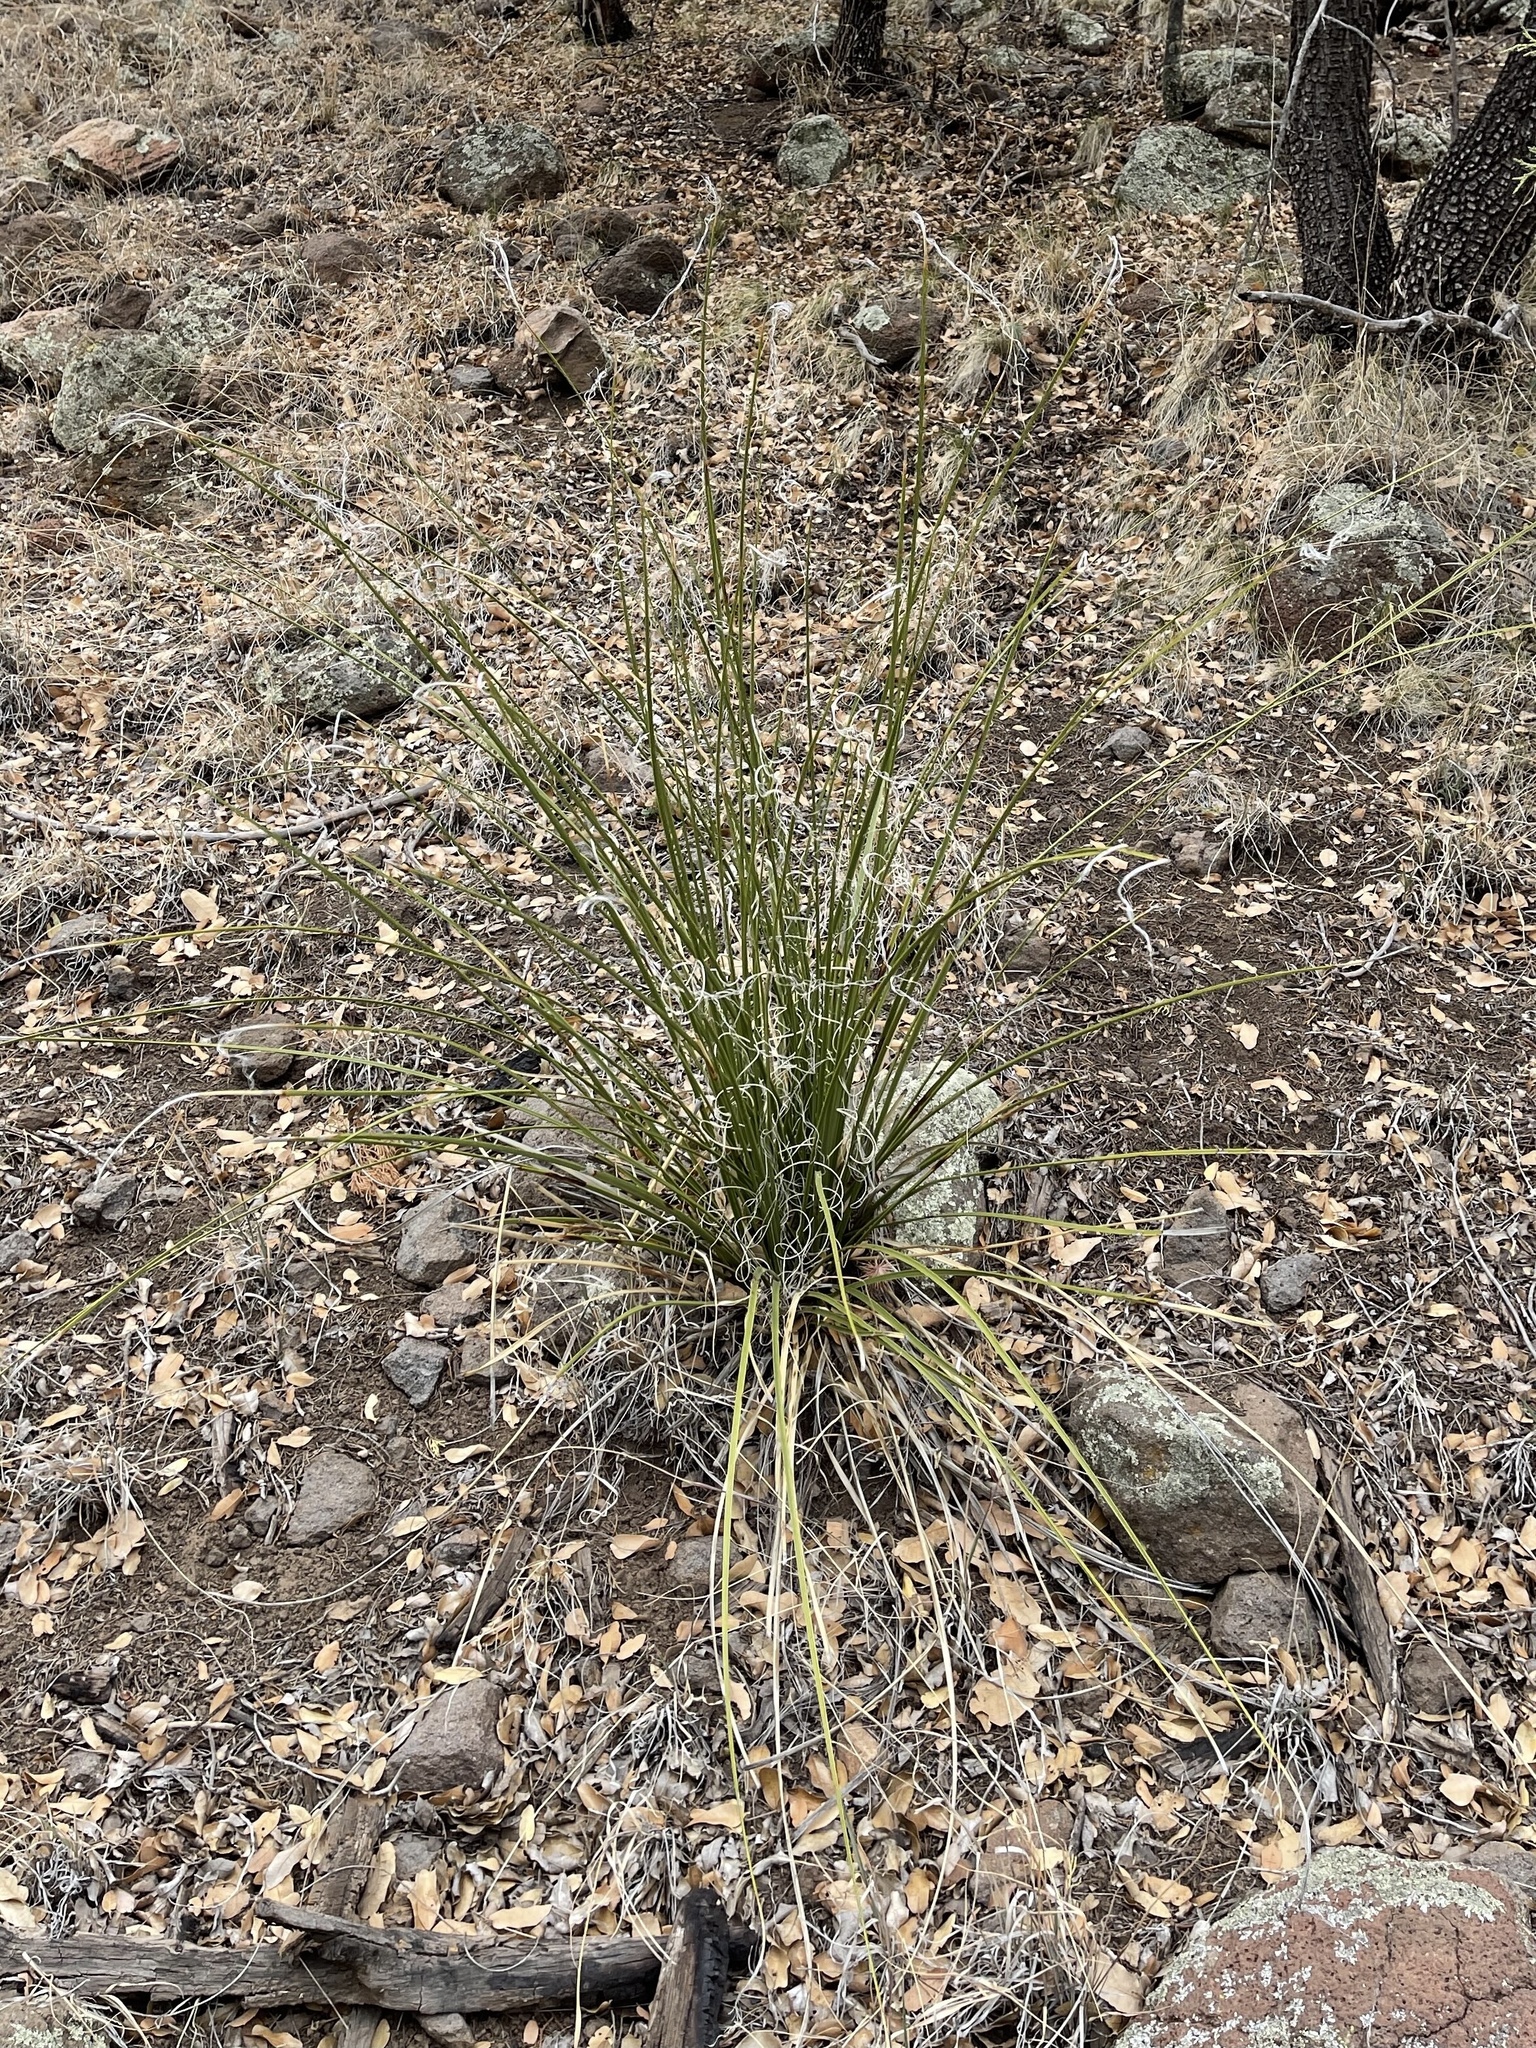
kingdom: Plantae
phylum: Tracheophyta
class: Liliopsida
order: Asparagales
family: Asparagaceae
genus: Nolina
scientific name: Nolina microcarpa
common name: Bear-grass
